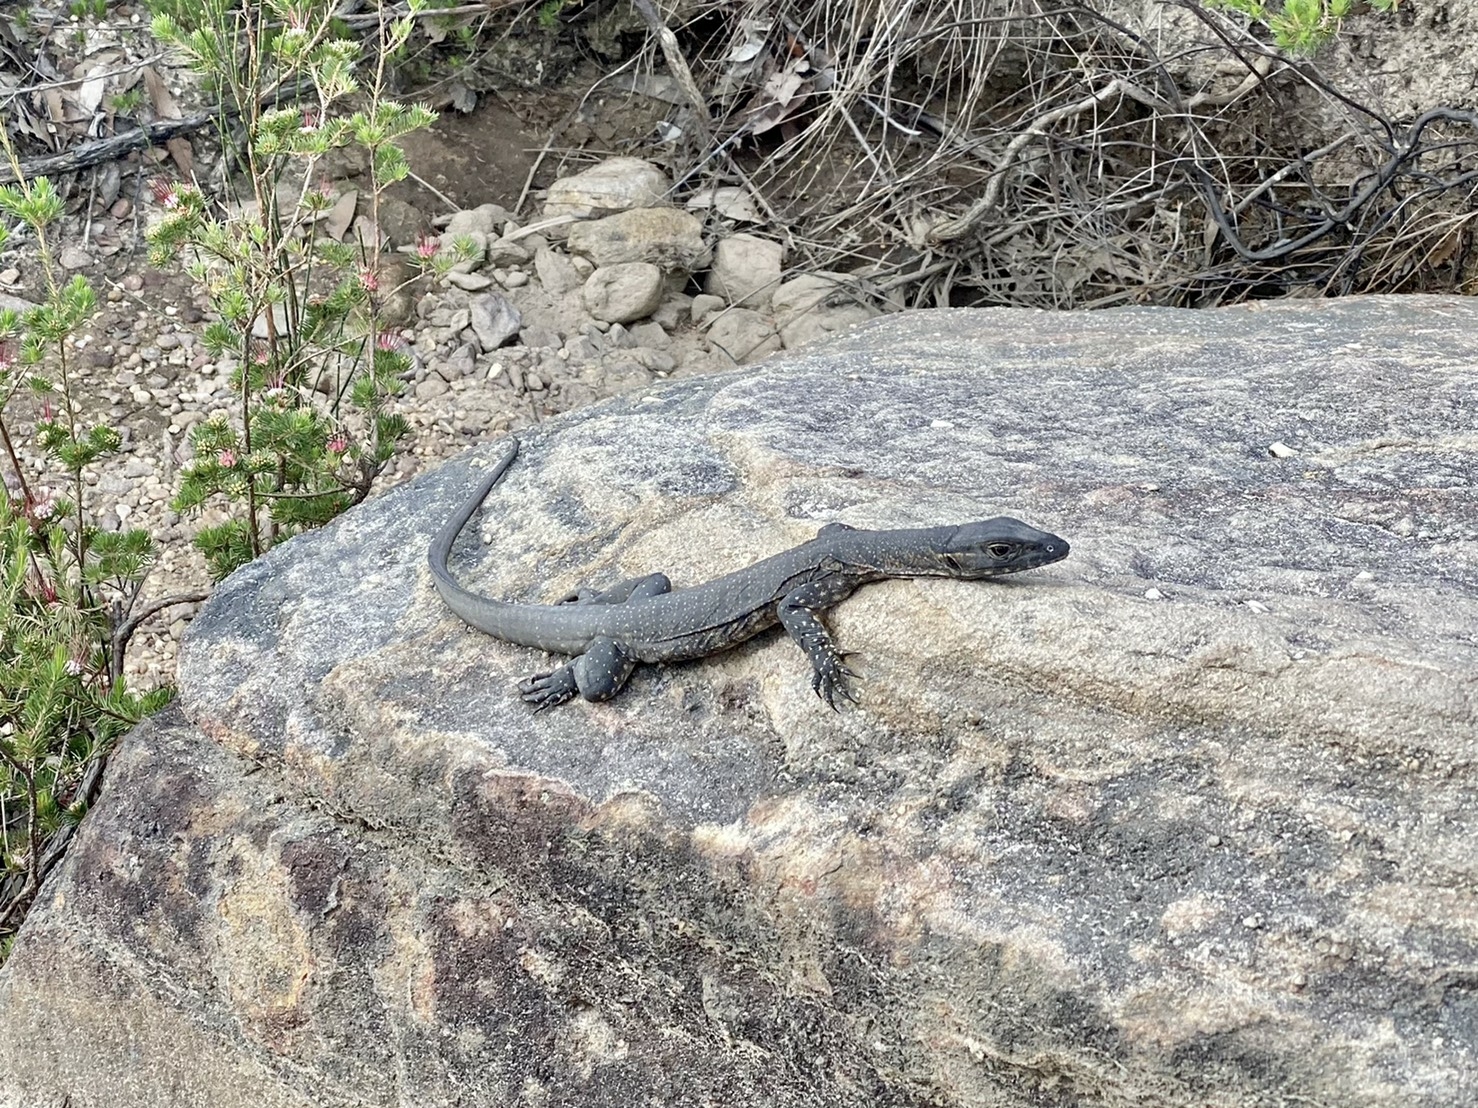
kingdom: Animalia
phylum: Chordata
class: Squamata
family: Varanidae
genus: Varanus
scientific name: Varanus rosenbergi
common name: Heath monitor
